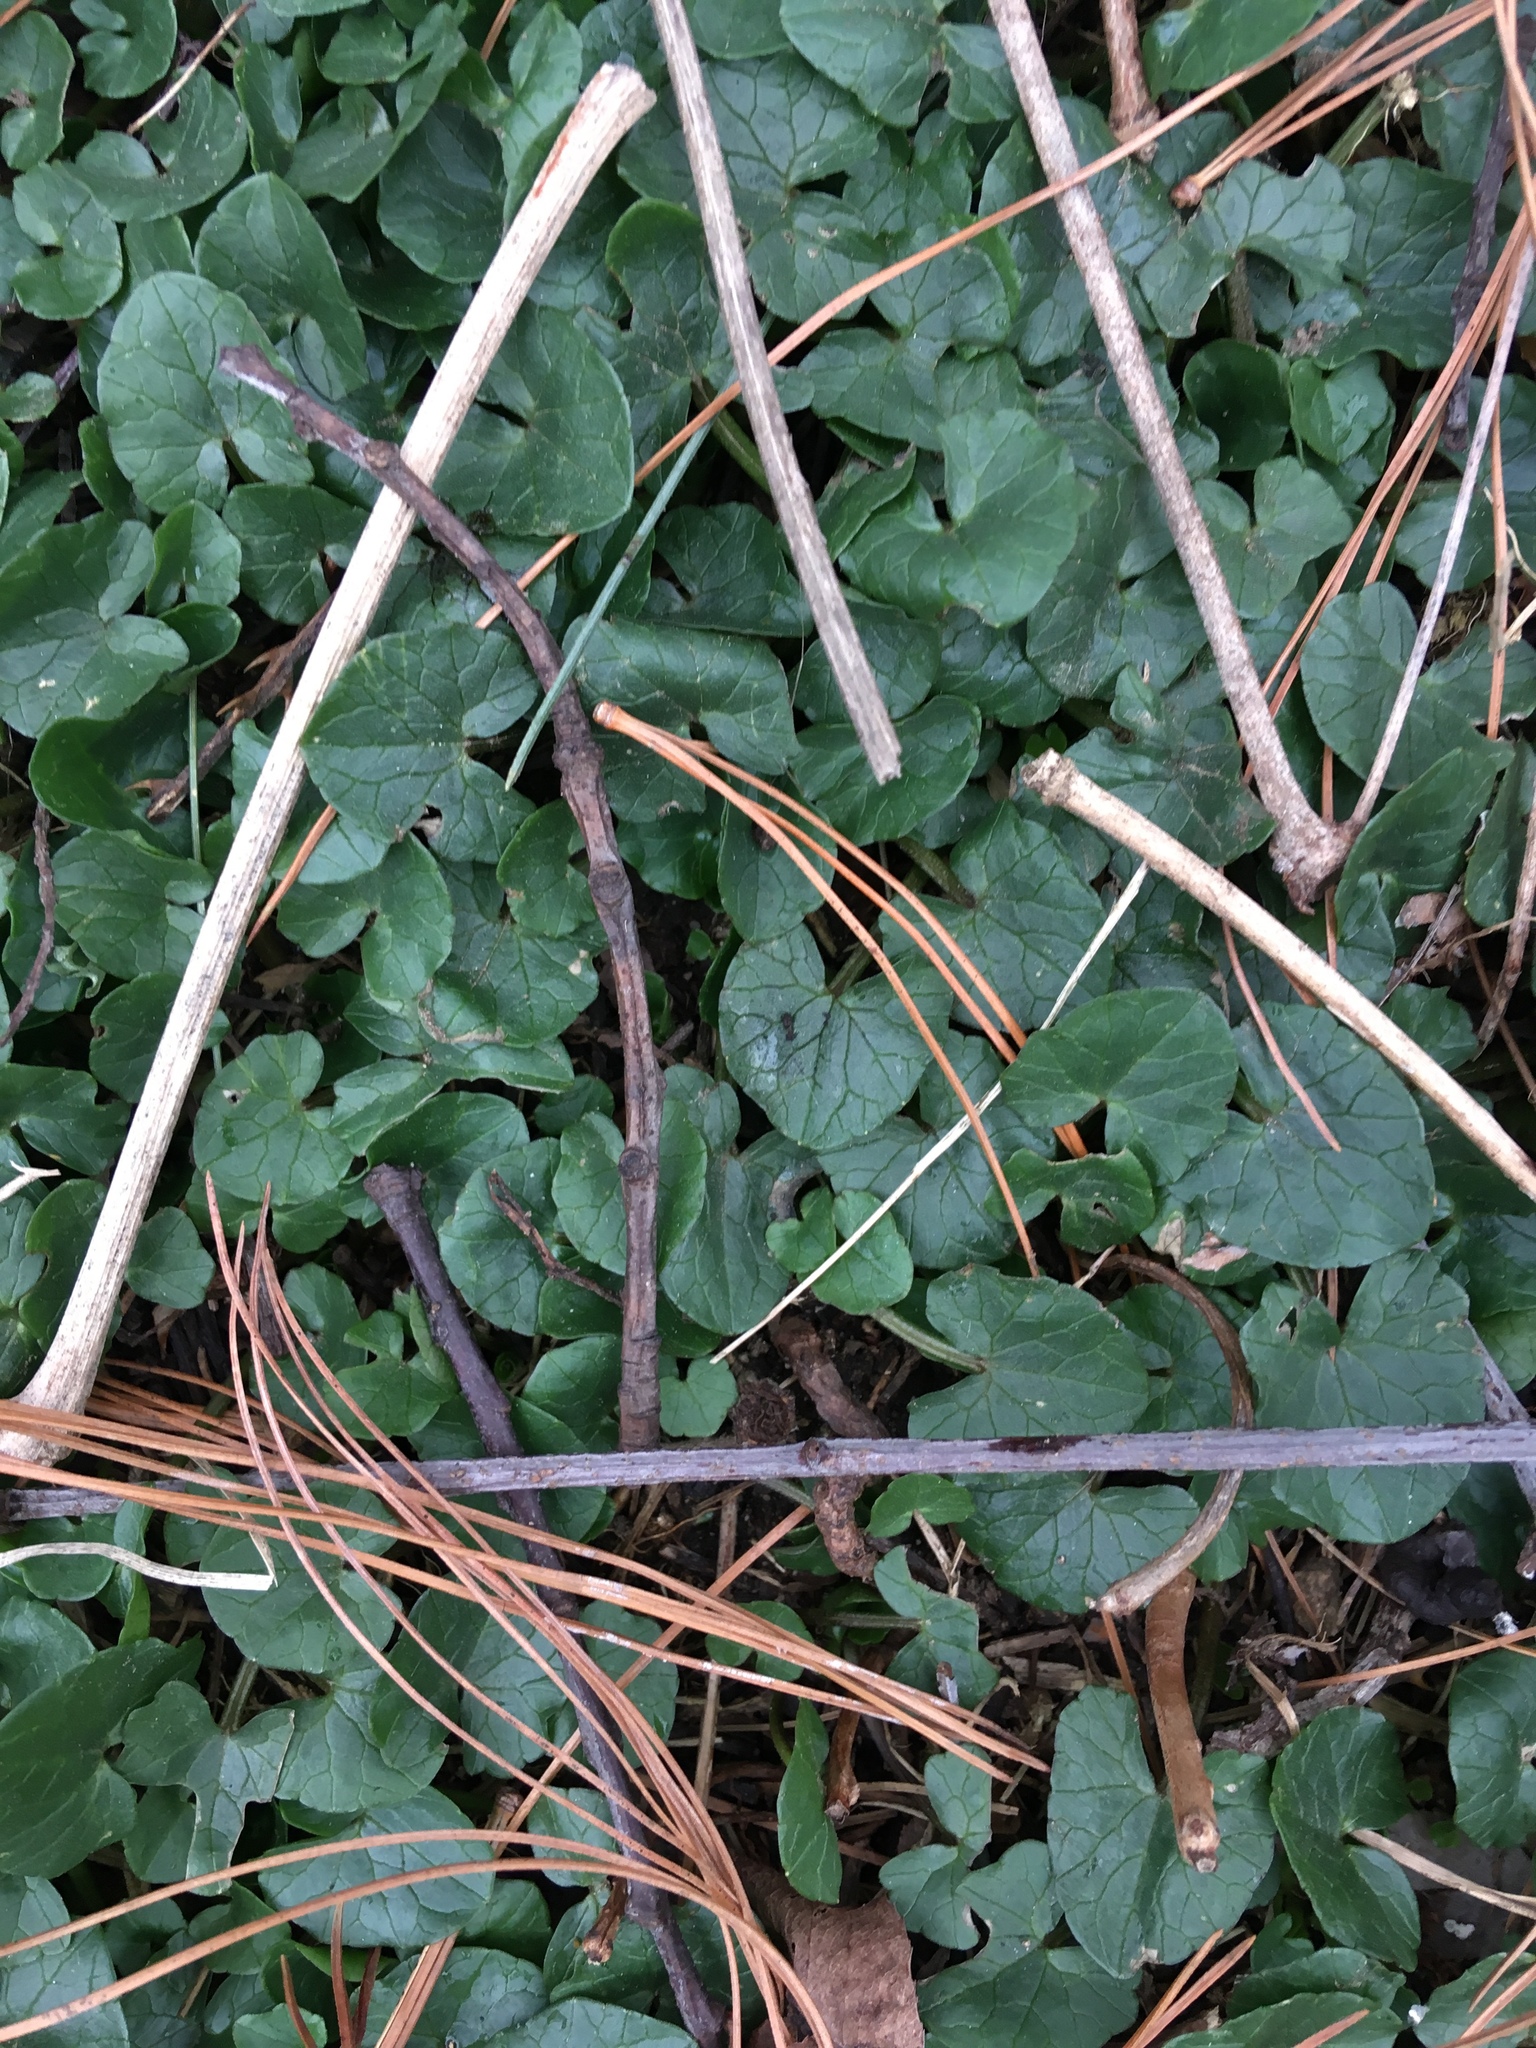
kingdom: Plantae
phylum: Tracheophyta
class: Magnoliopsida
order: Ranunculales
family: Ranunculaceae
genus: Ficaria
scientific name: Ficaria verna
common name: Lesser celandine
